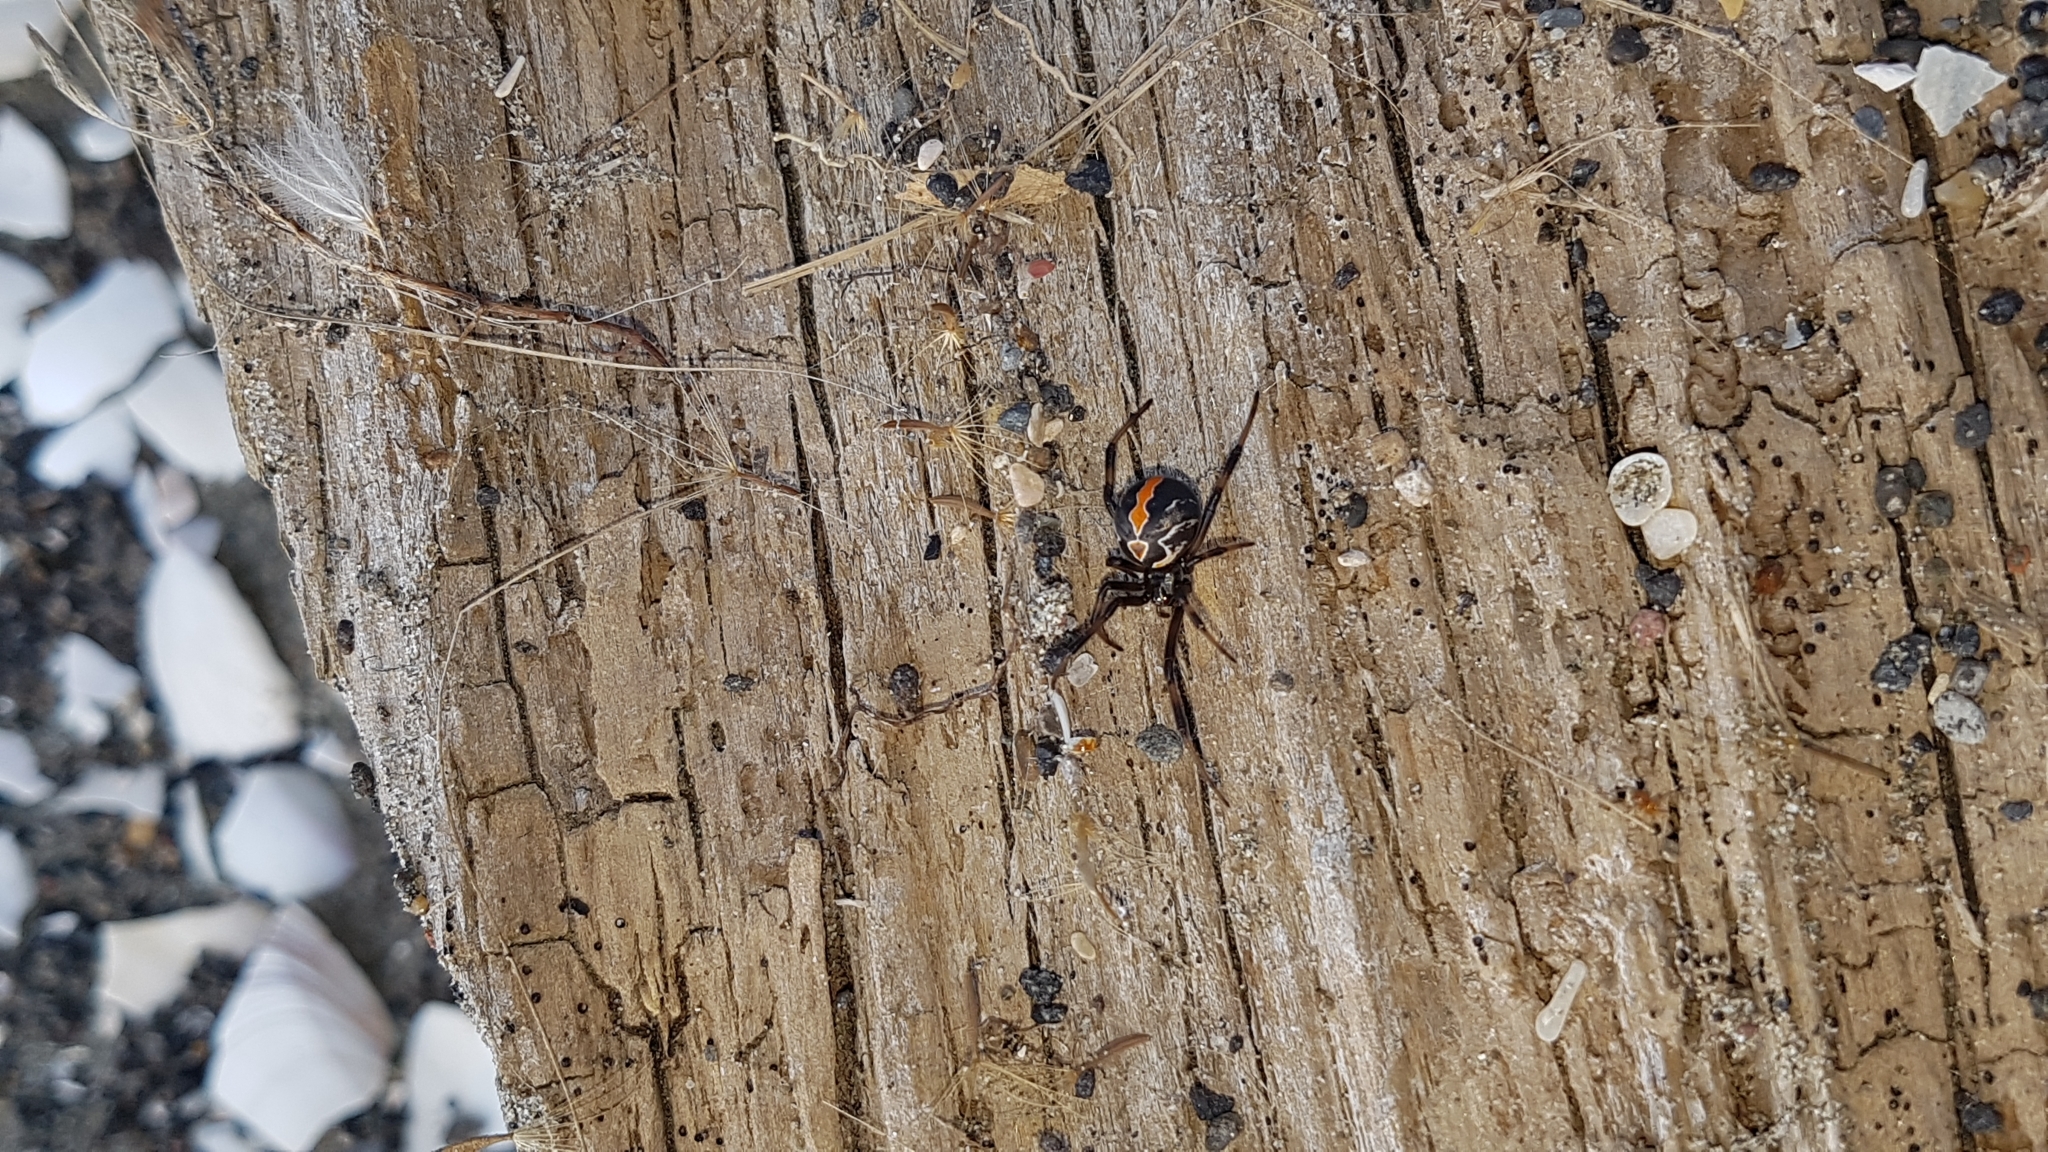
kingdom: Animalia
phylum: Arthropoda
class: Arachnida
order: Araneae
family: Theridiidae
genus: Latrodectus
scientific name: Latrodectus katipo
